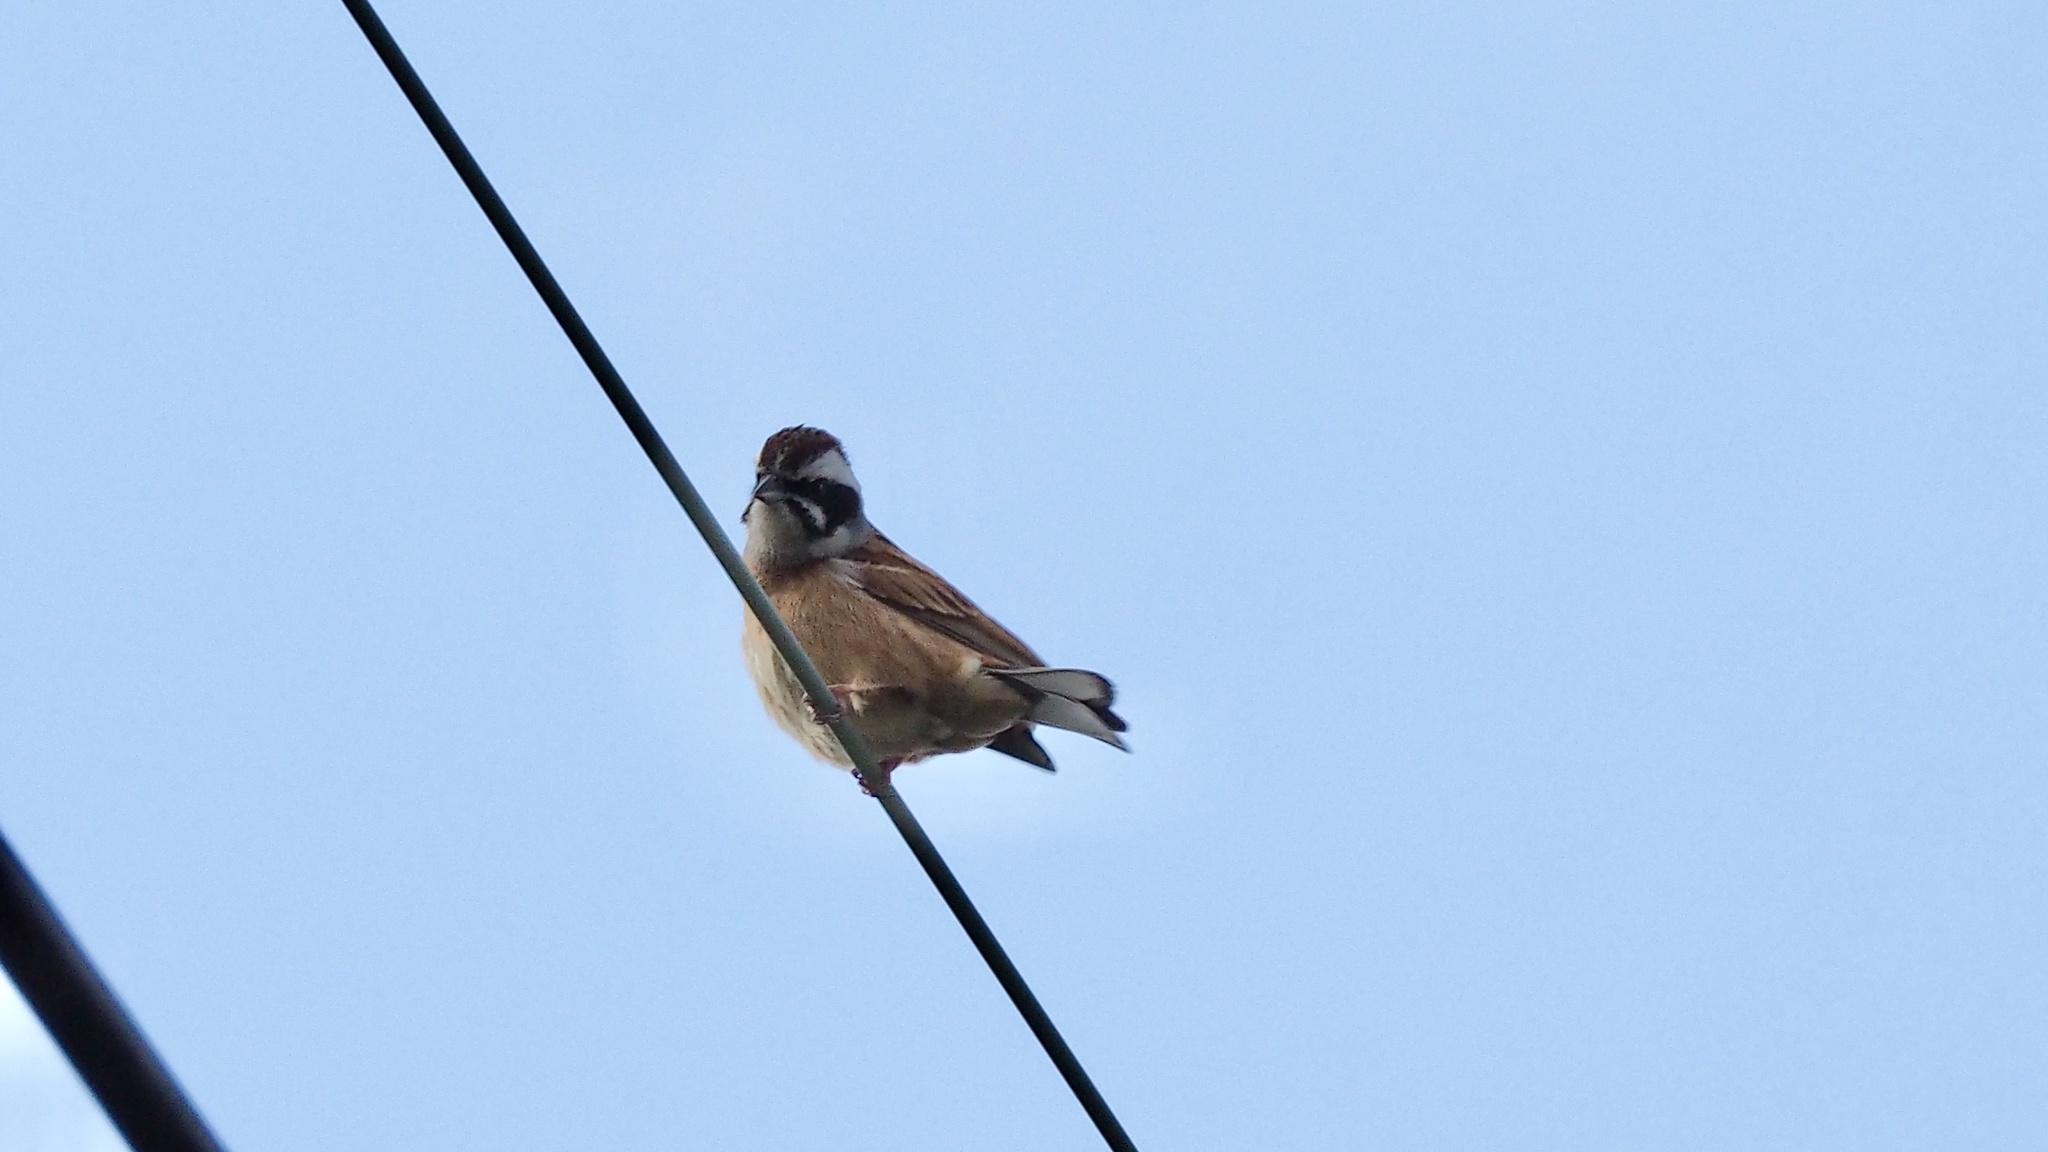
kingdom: Animalia
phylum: Chordata
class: Aves
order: Passeriformes
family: Emberizidae
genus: Emberiza
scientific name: Emberiza cioides
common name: Meadow bunting
